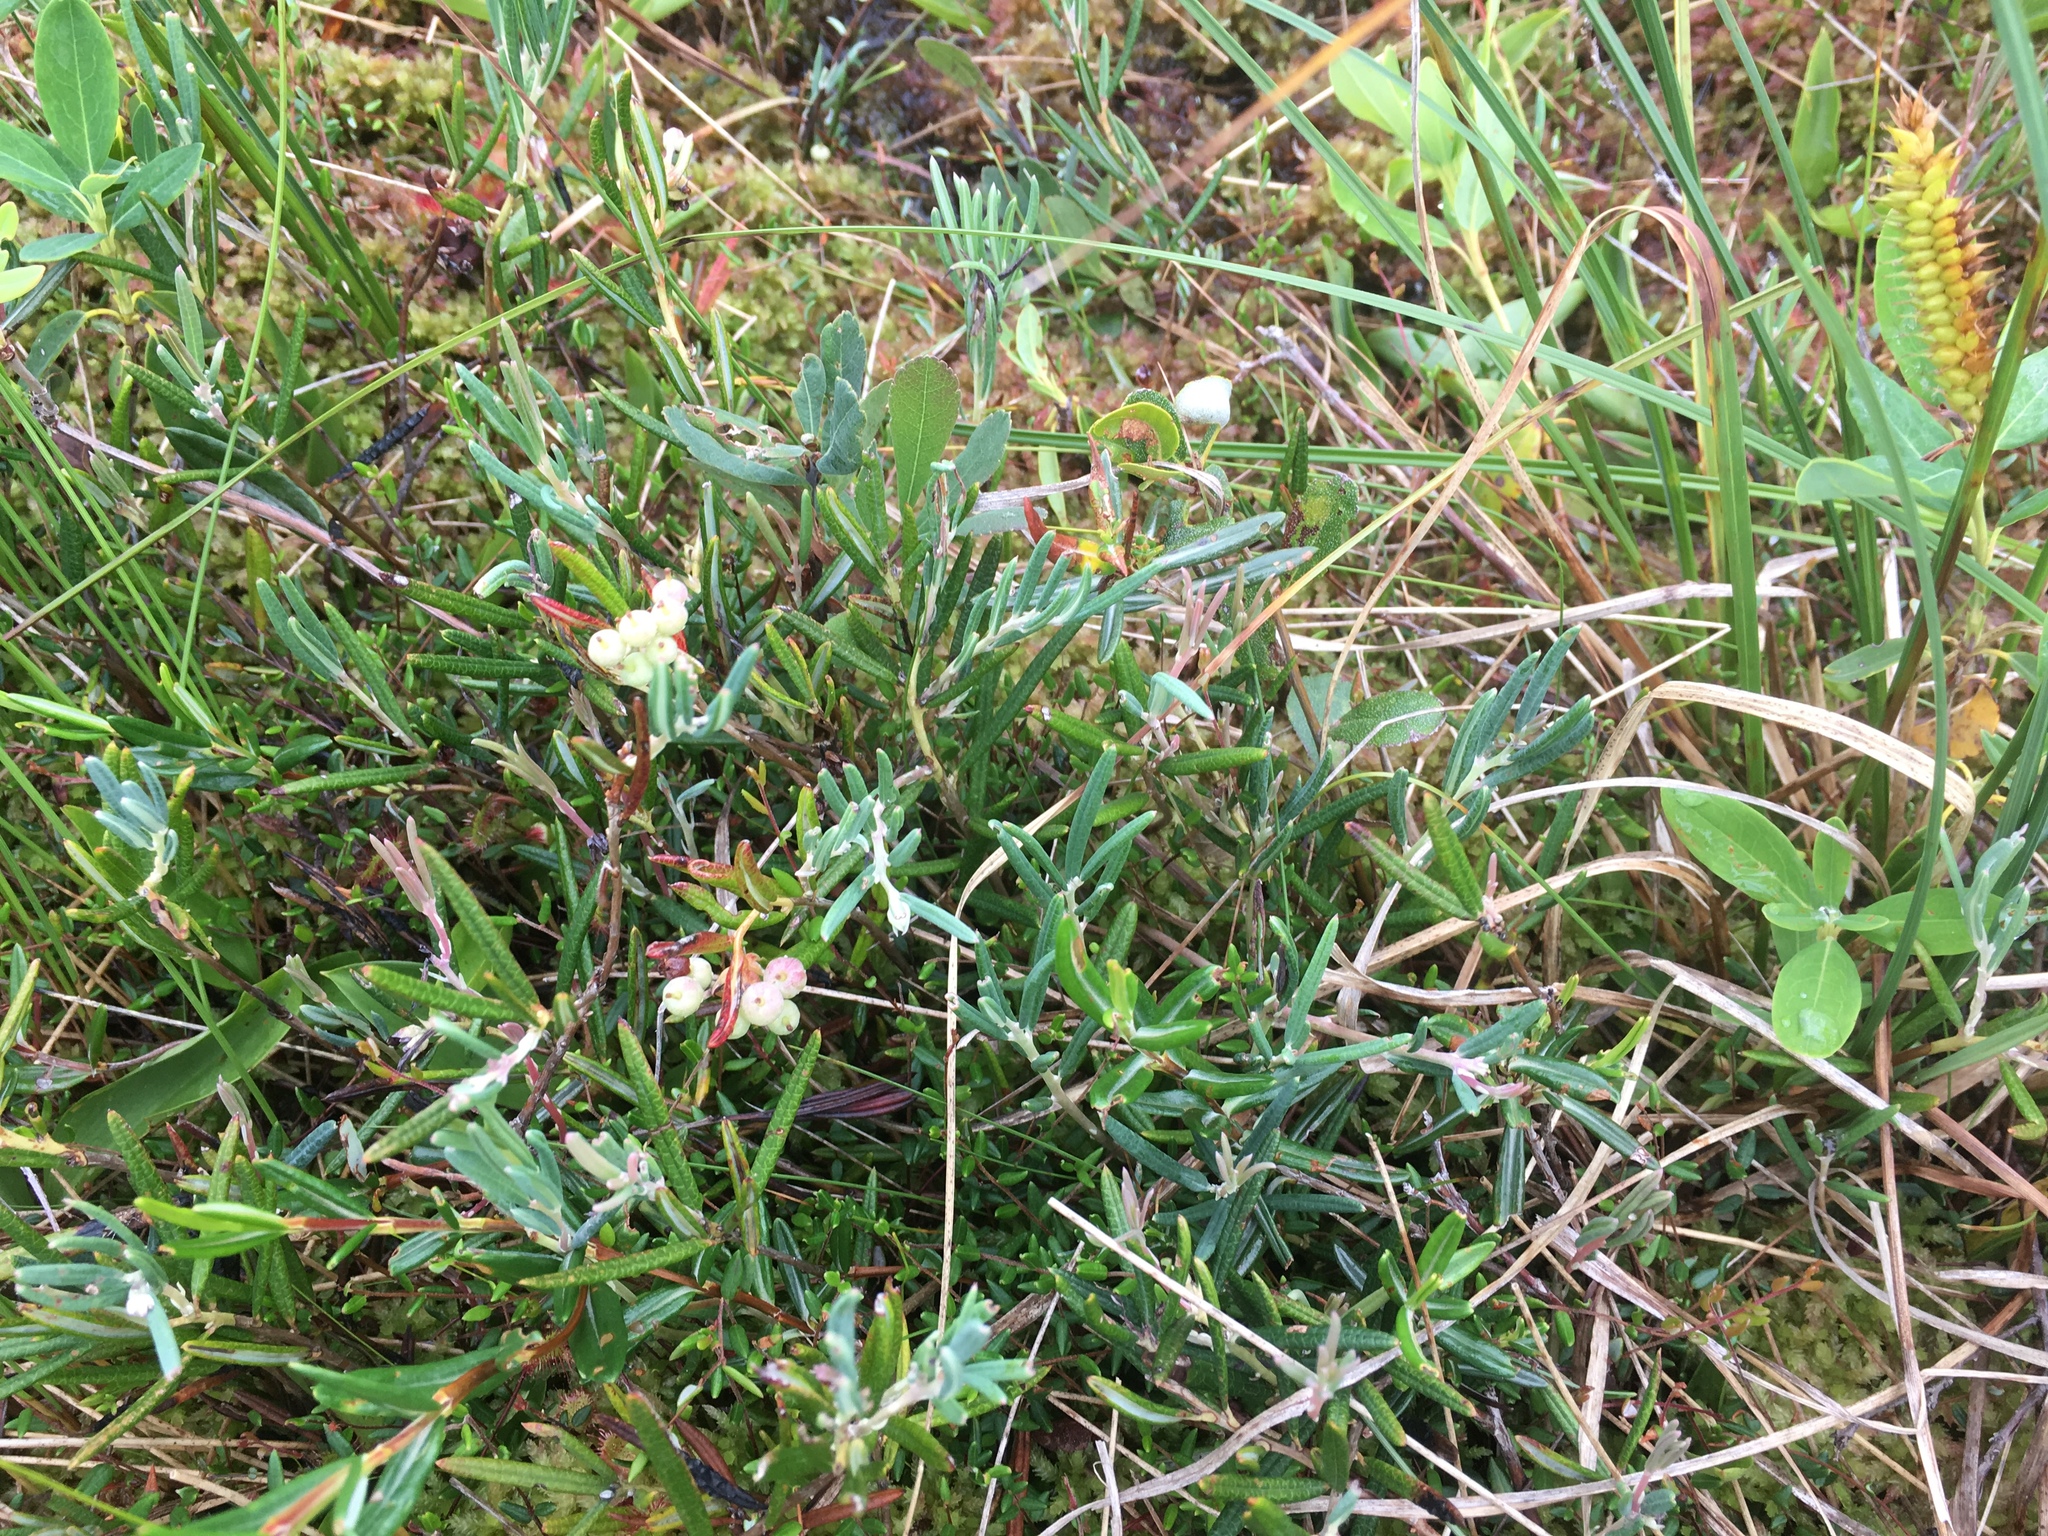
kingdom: Plantae
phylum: Tracheophyta
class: Magnoliopsida
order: Ericales
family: Ericaceae
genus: Andromeda
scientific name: Andromeda polifolia
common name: Bog-rosemary
